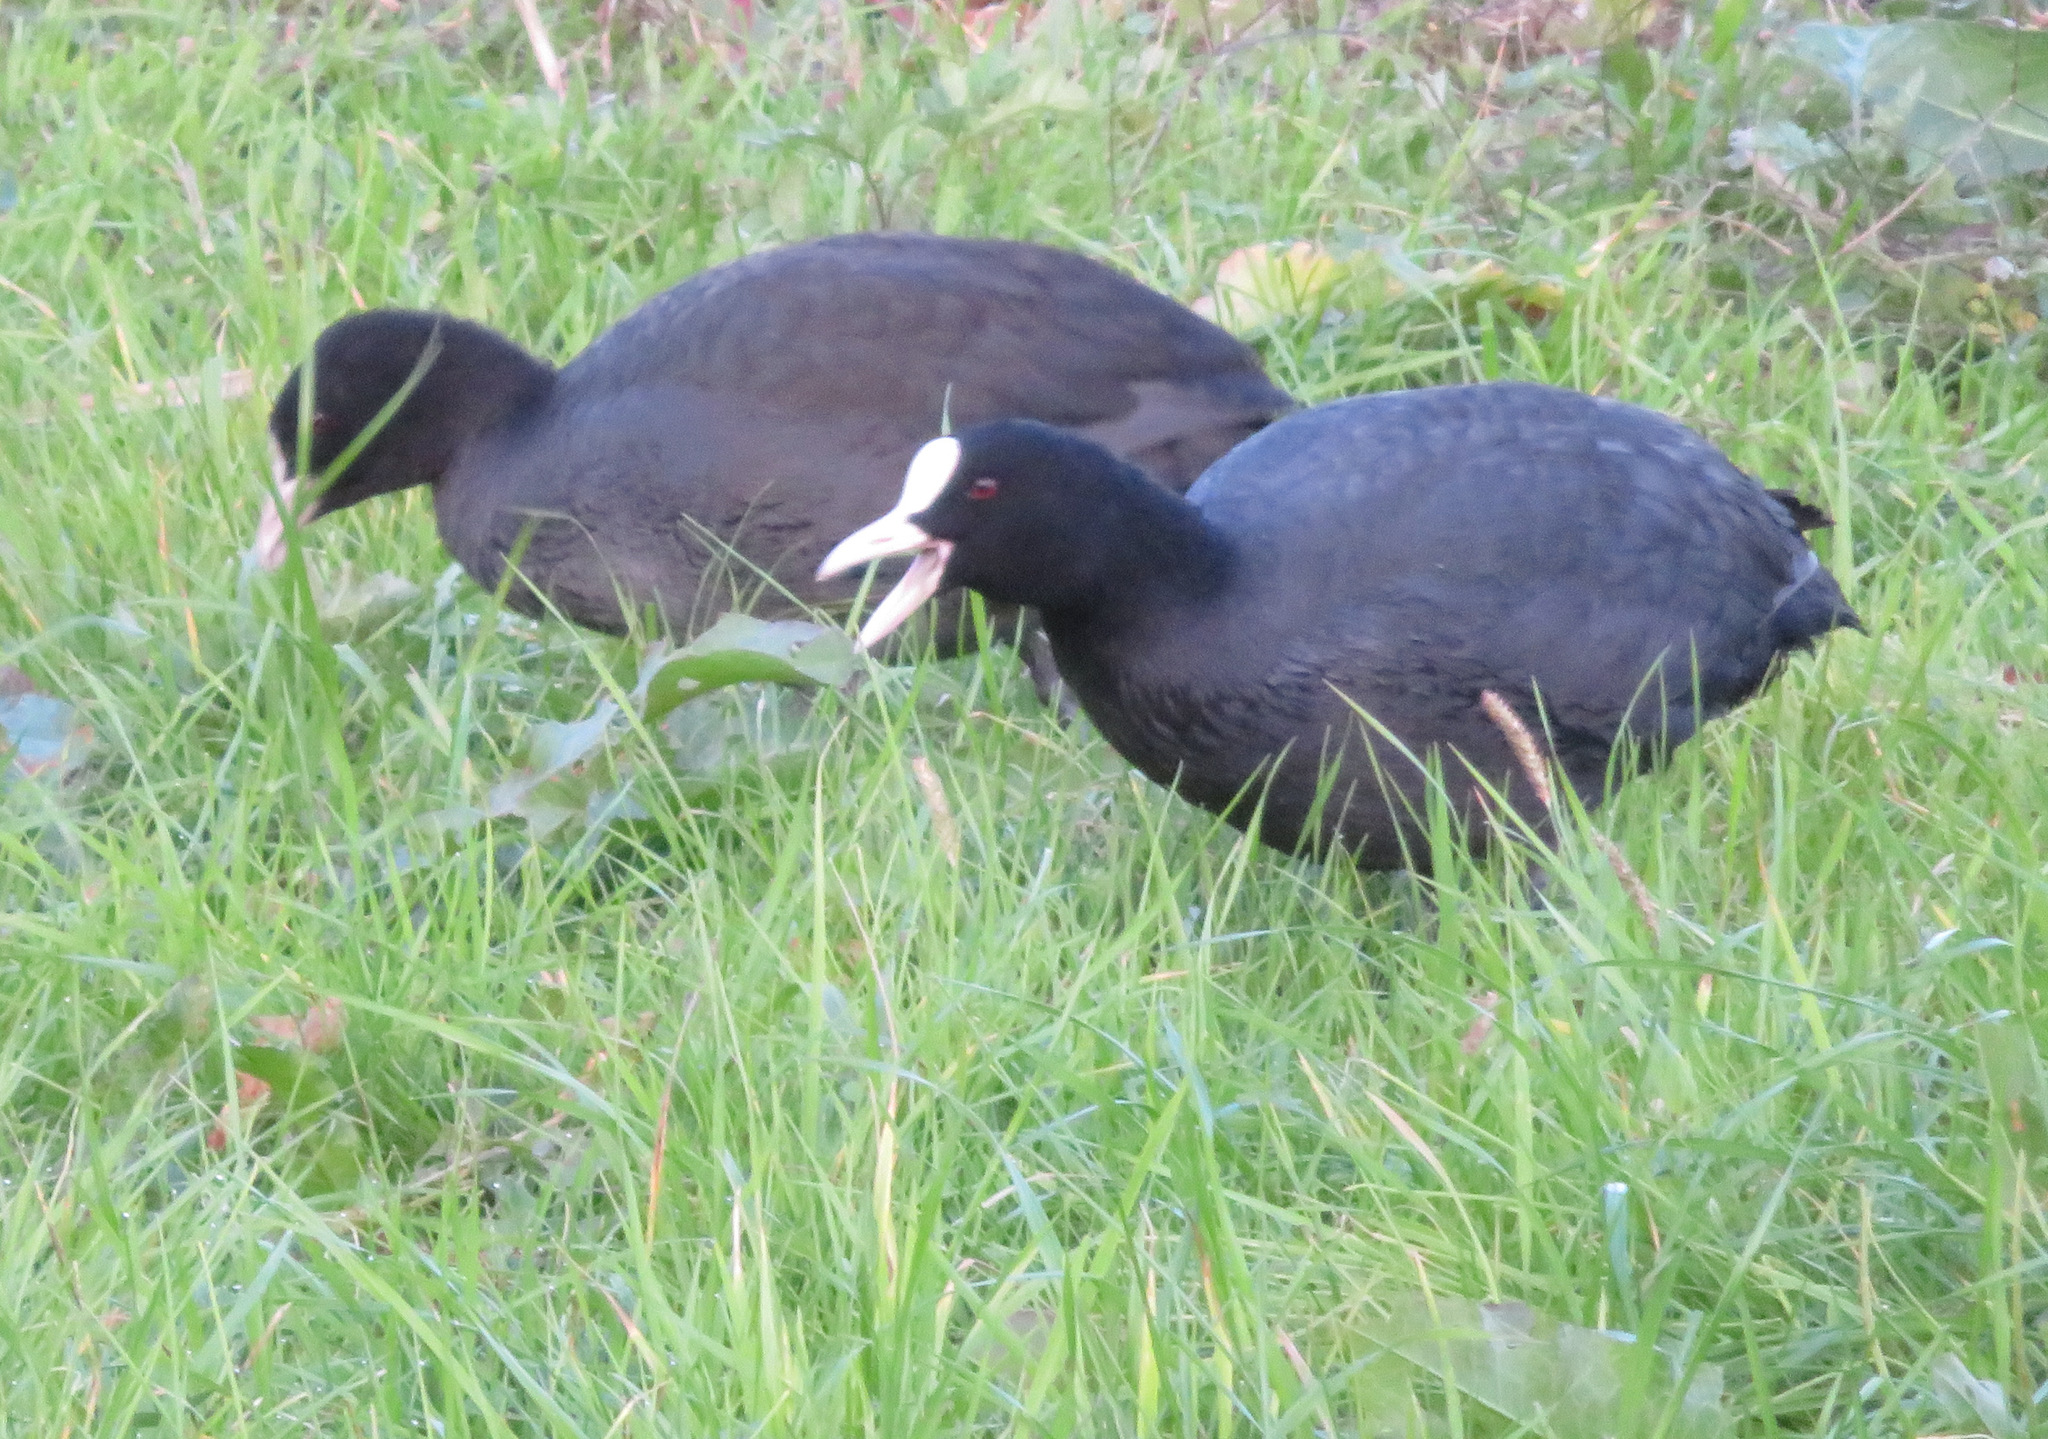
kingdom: Animalia
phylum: Chordata
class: Aves
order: Gruiformes
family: Rallidae
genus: Fulica
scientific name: Fulica atra
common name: Eurasian coot
